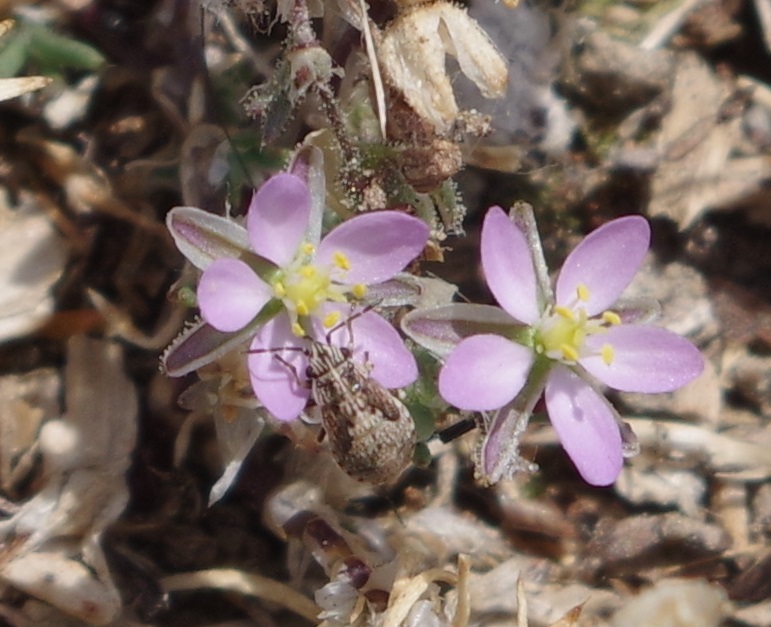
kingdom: Plantae
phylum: Tracheophyta
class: Magnoliopsida
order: Caryophyllales
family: Caryophyllaceae
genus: Spergularia
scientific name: Spergularia rubra
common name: Red sand-spurrey
